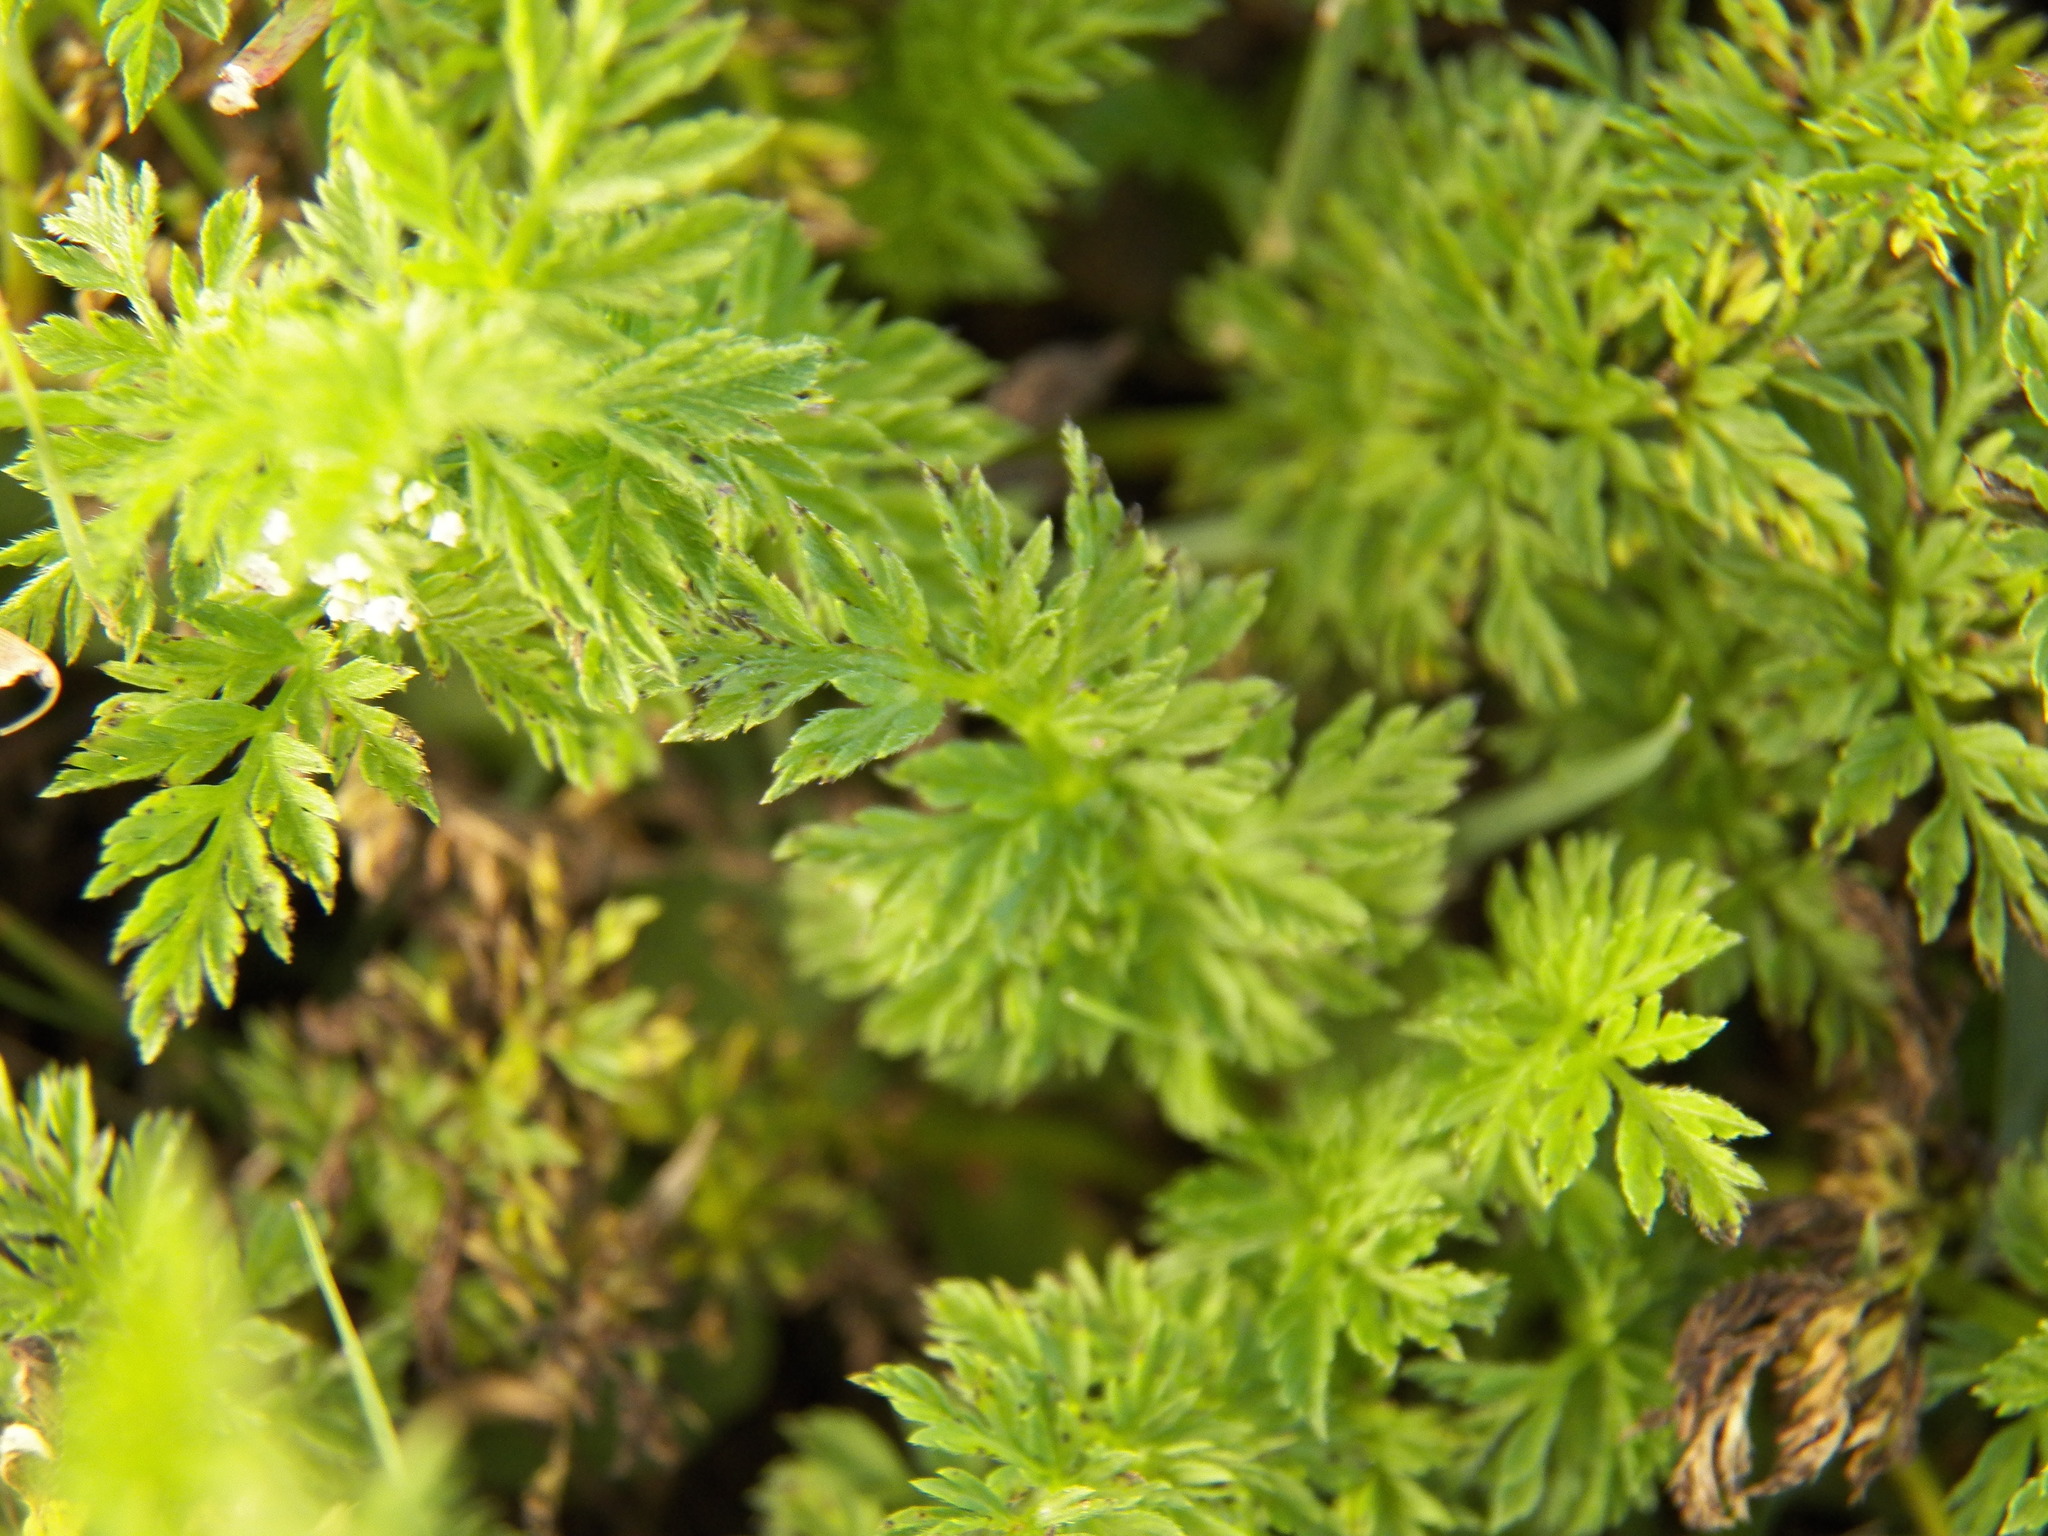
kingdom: Plantae
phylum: Tracheophyta
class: Magnoliopsida
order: Apiales
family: Apiaceae
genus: Torilis
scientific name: Torilis nodosa
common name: Knotted hedge-parsley
